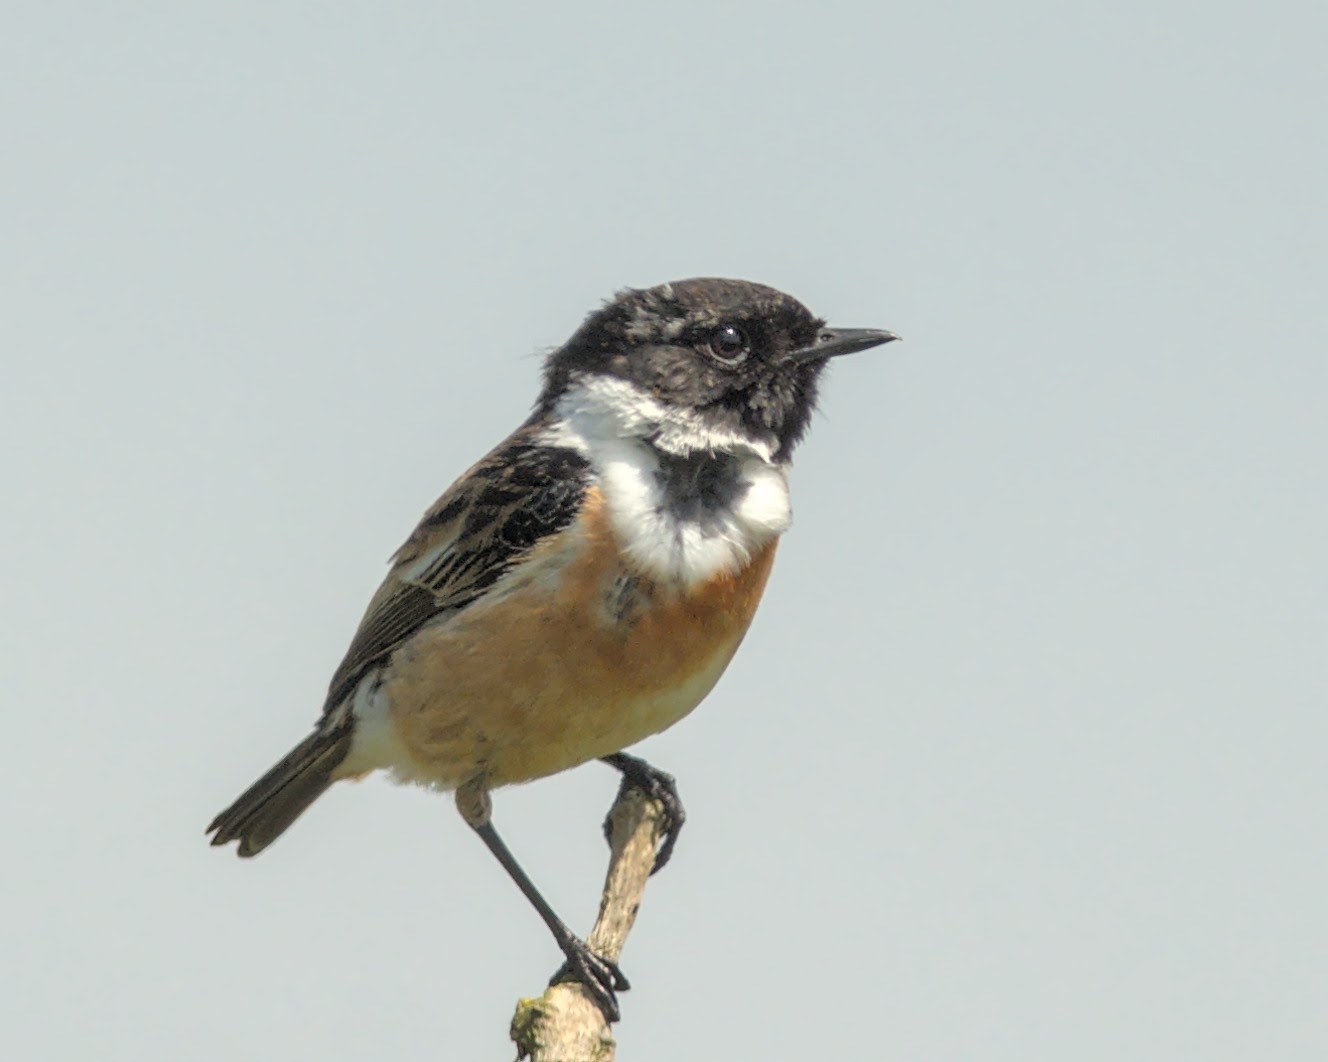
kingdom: Animalia
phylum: Chordata
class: Aves
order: Passeriformes
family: Muscicapidae
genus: Saxicola
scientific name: Saxicola rubicola
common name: European stonechat
